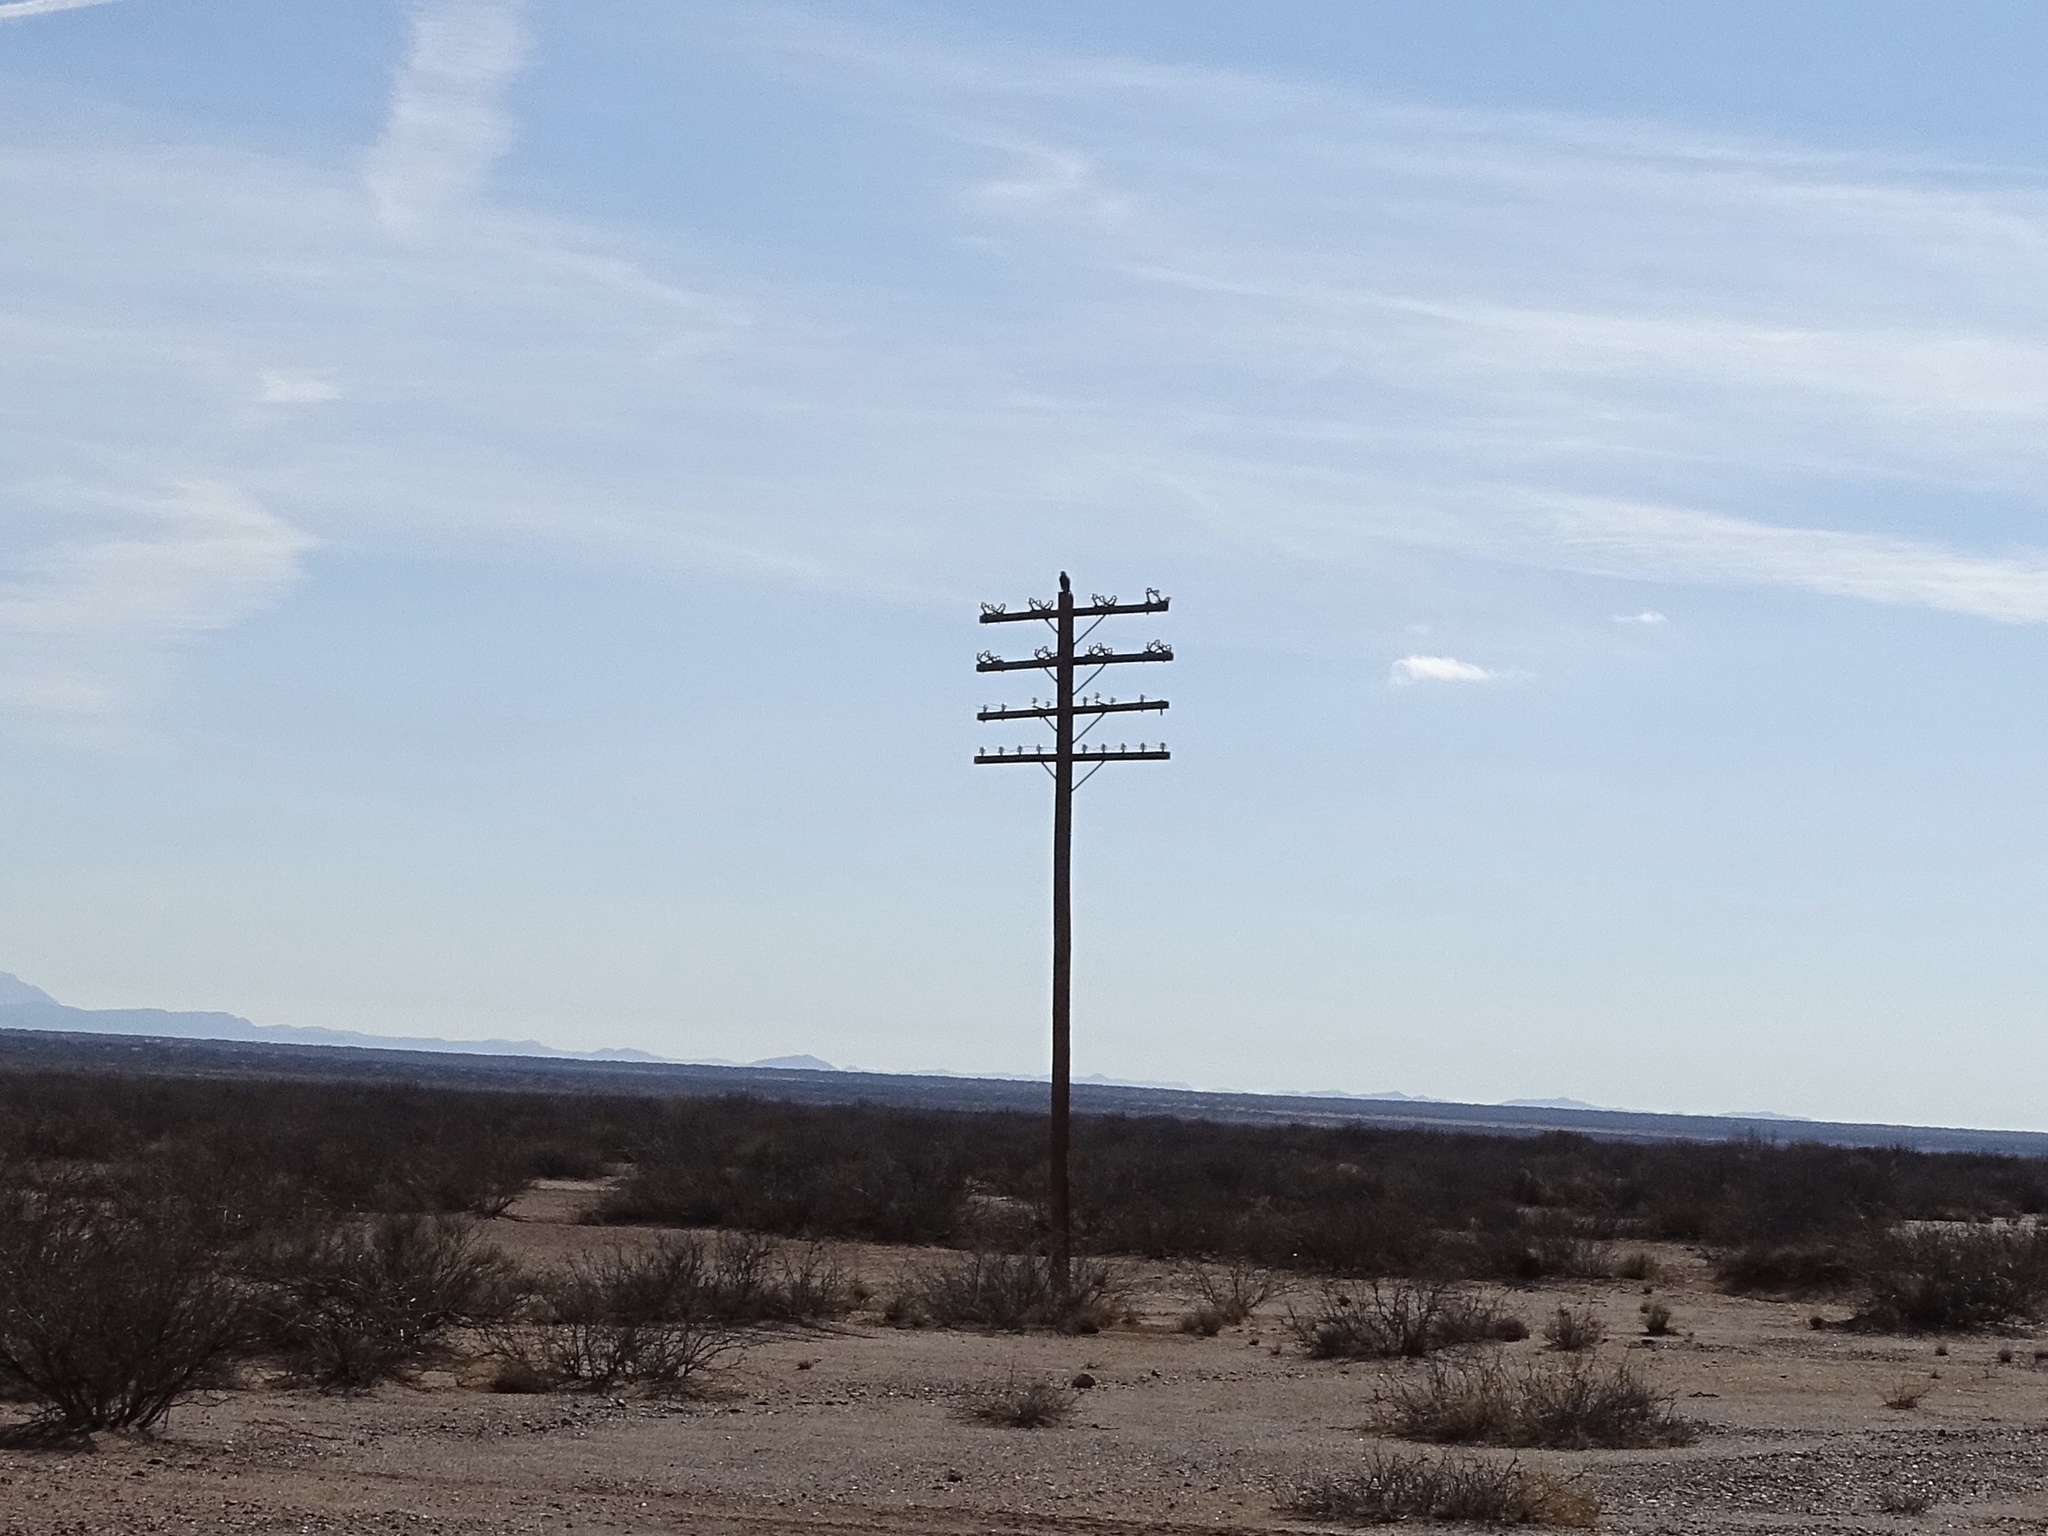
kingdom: Animalia
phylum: Chordata
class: Aves
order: Falconiformes
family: Falconidae
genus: Falco
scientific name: Falco mexicanus
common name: Prairie falcon
